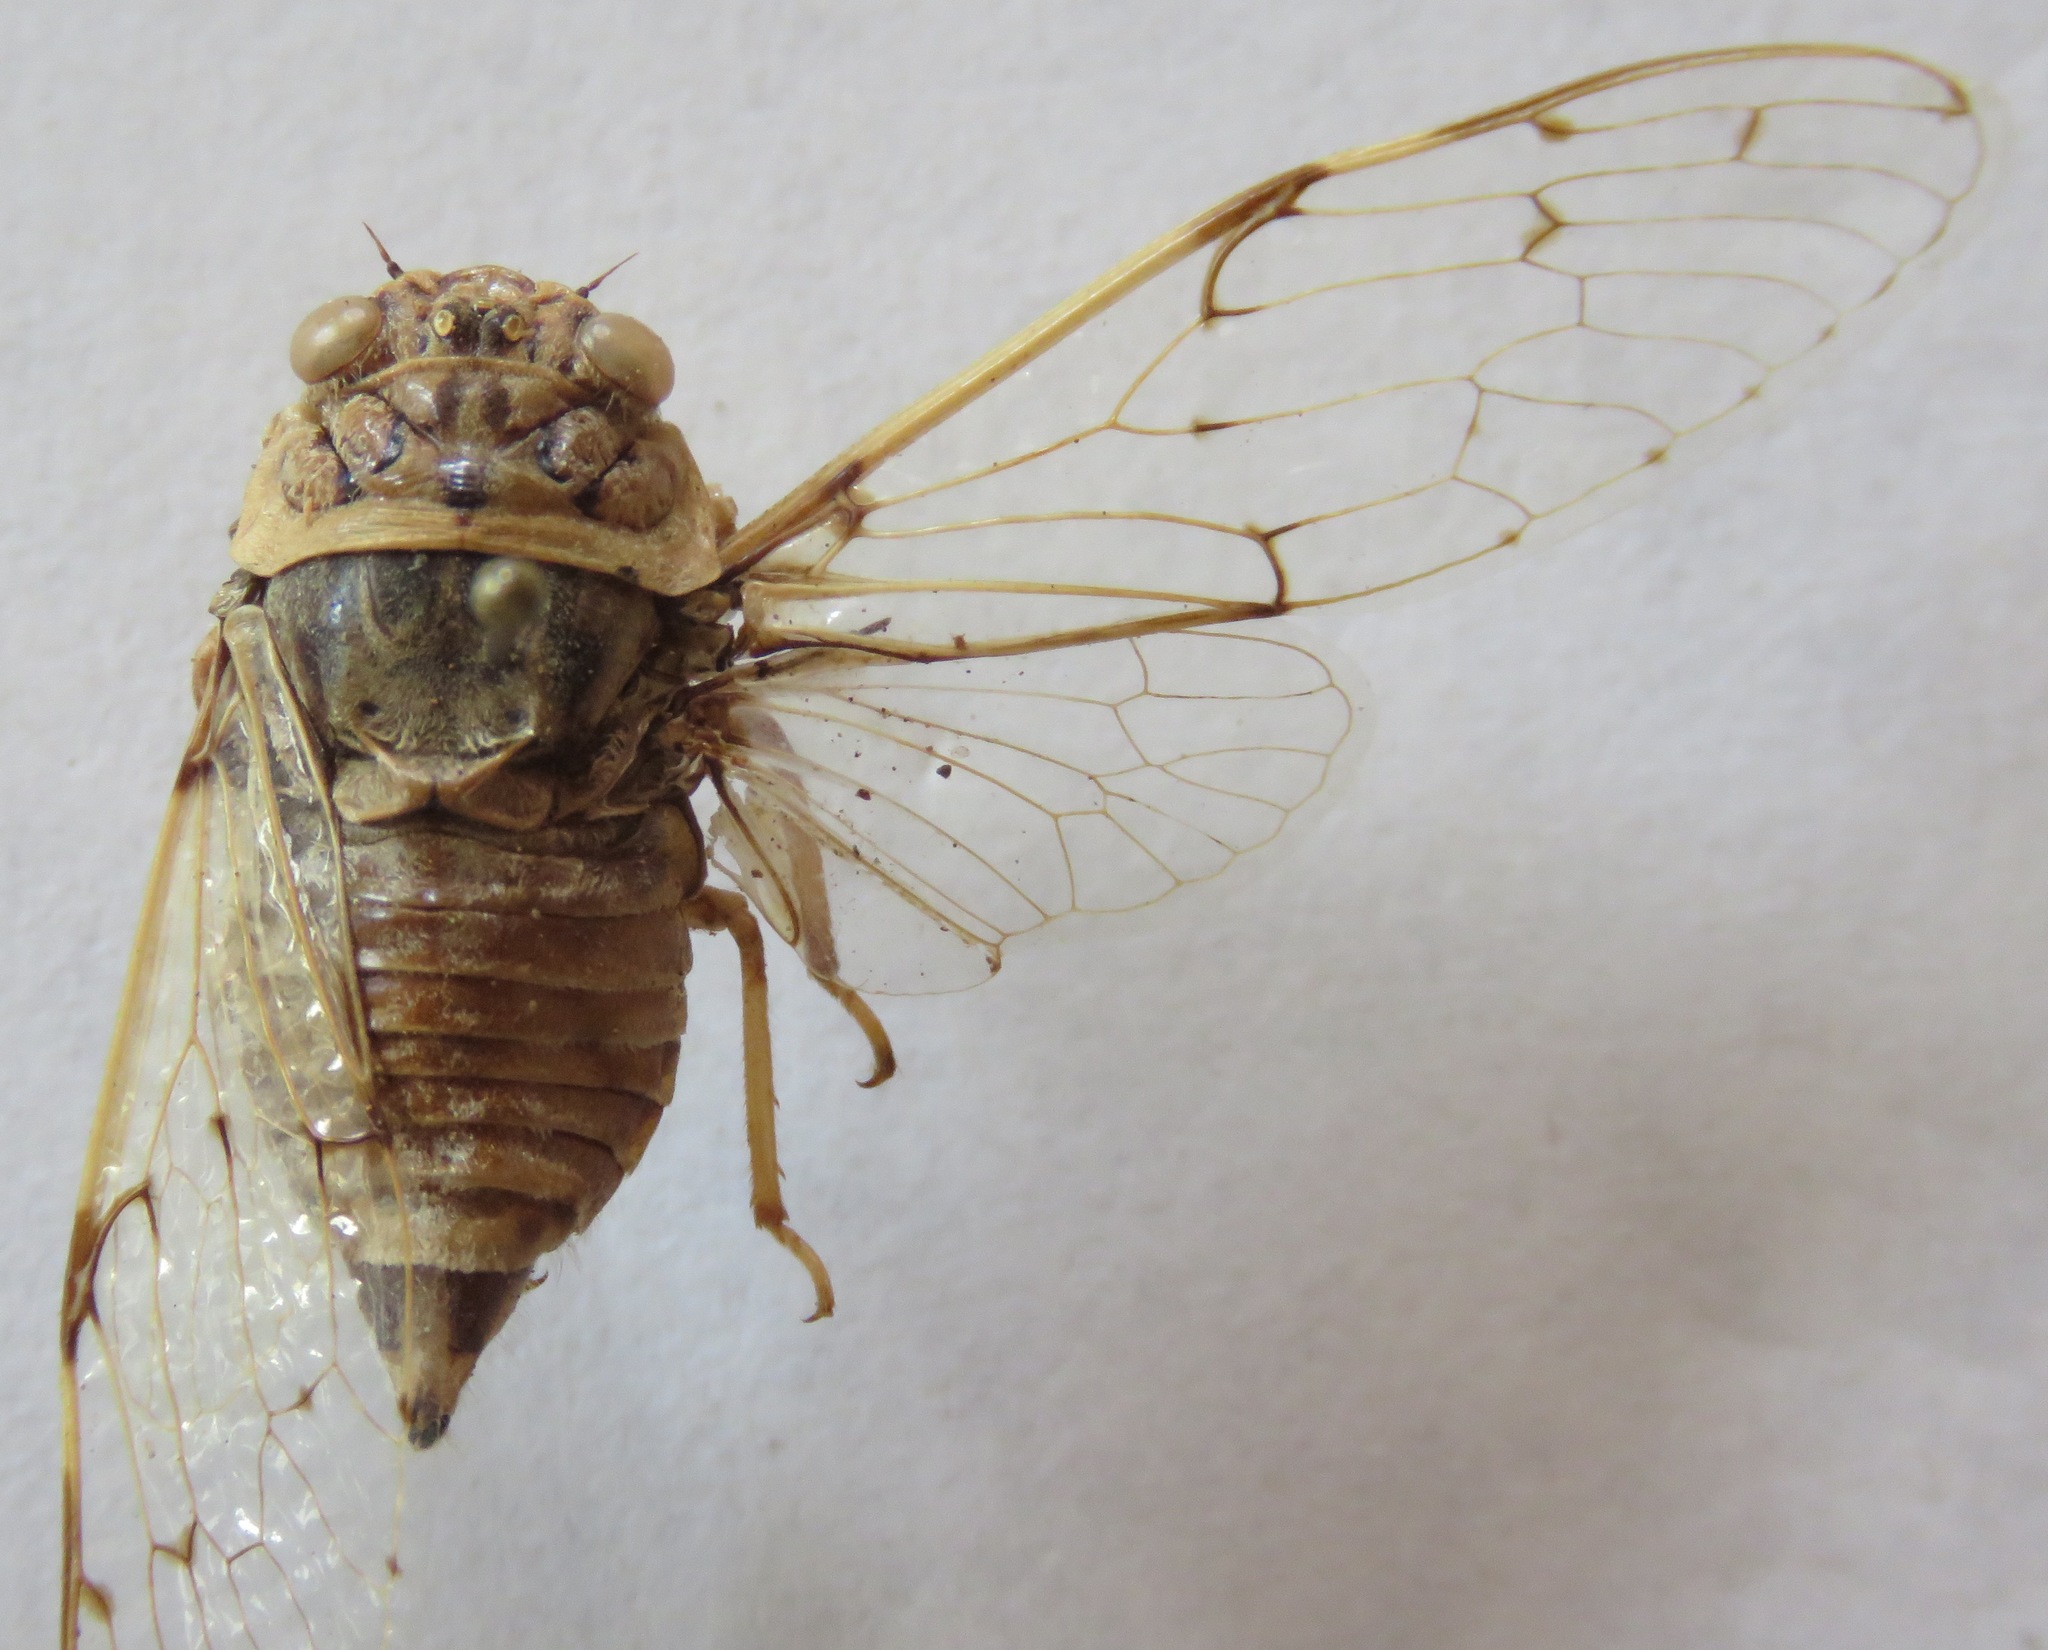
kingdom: Animalia
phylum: Arthropoda
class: Insecta
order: Hemiptera
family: Cicadidae
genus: Proarna
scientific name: Proarna insignis
